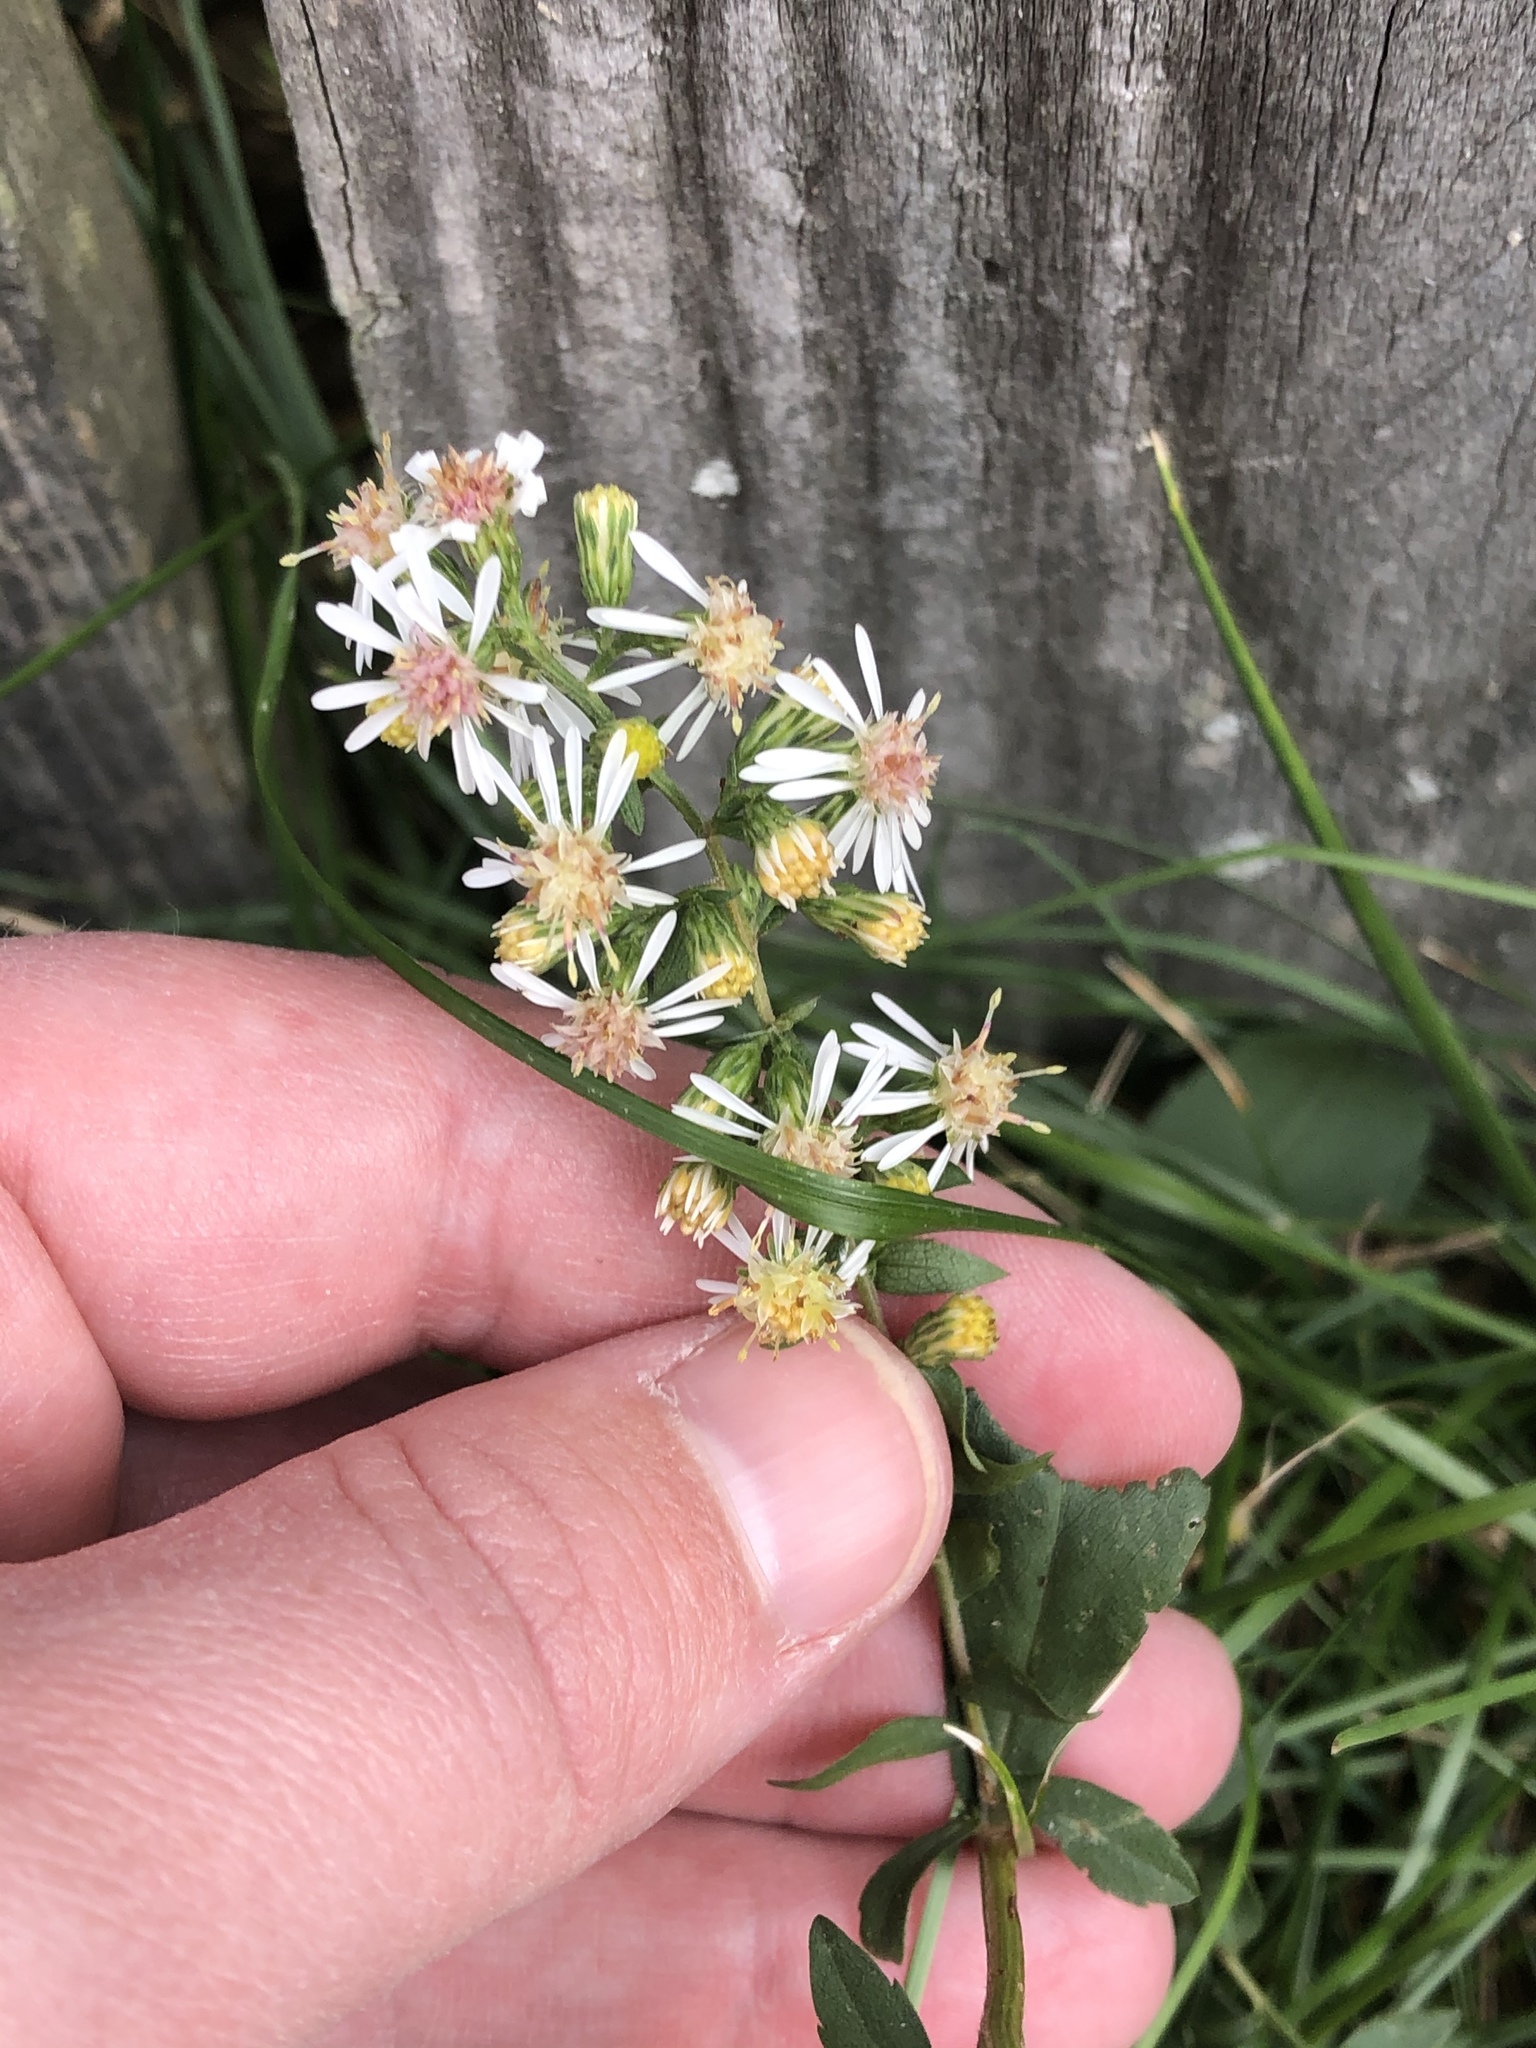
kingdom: Plantae
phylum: Tracheophyta
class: Magnoliopsida
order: Asterales
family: Asteraceae
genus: Symphyotrichum
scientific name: Symphyotrichum lateriflorum
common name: Calico aster
